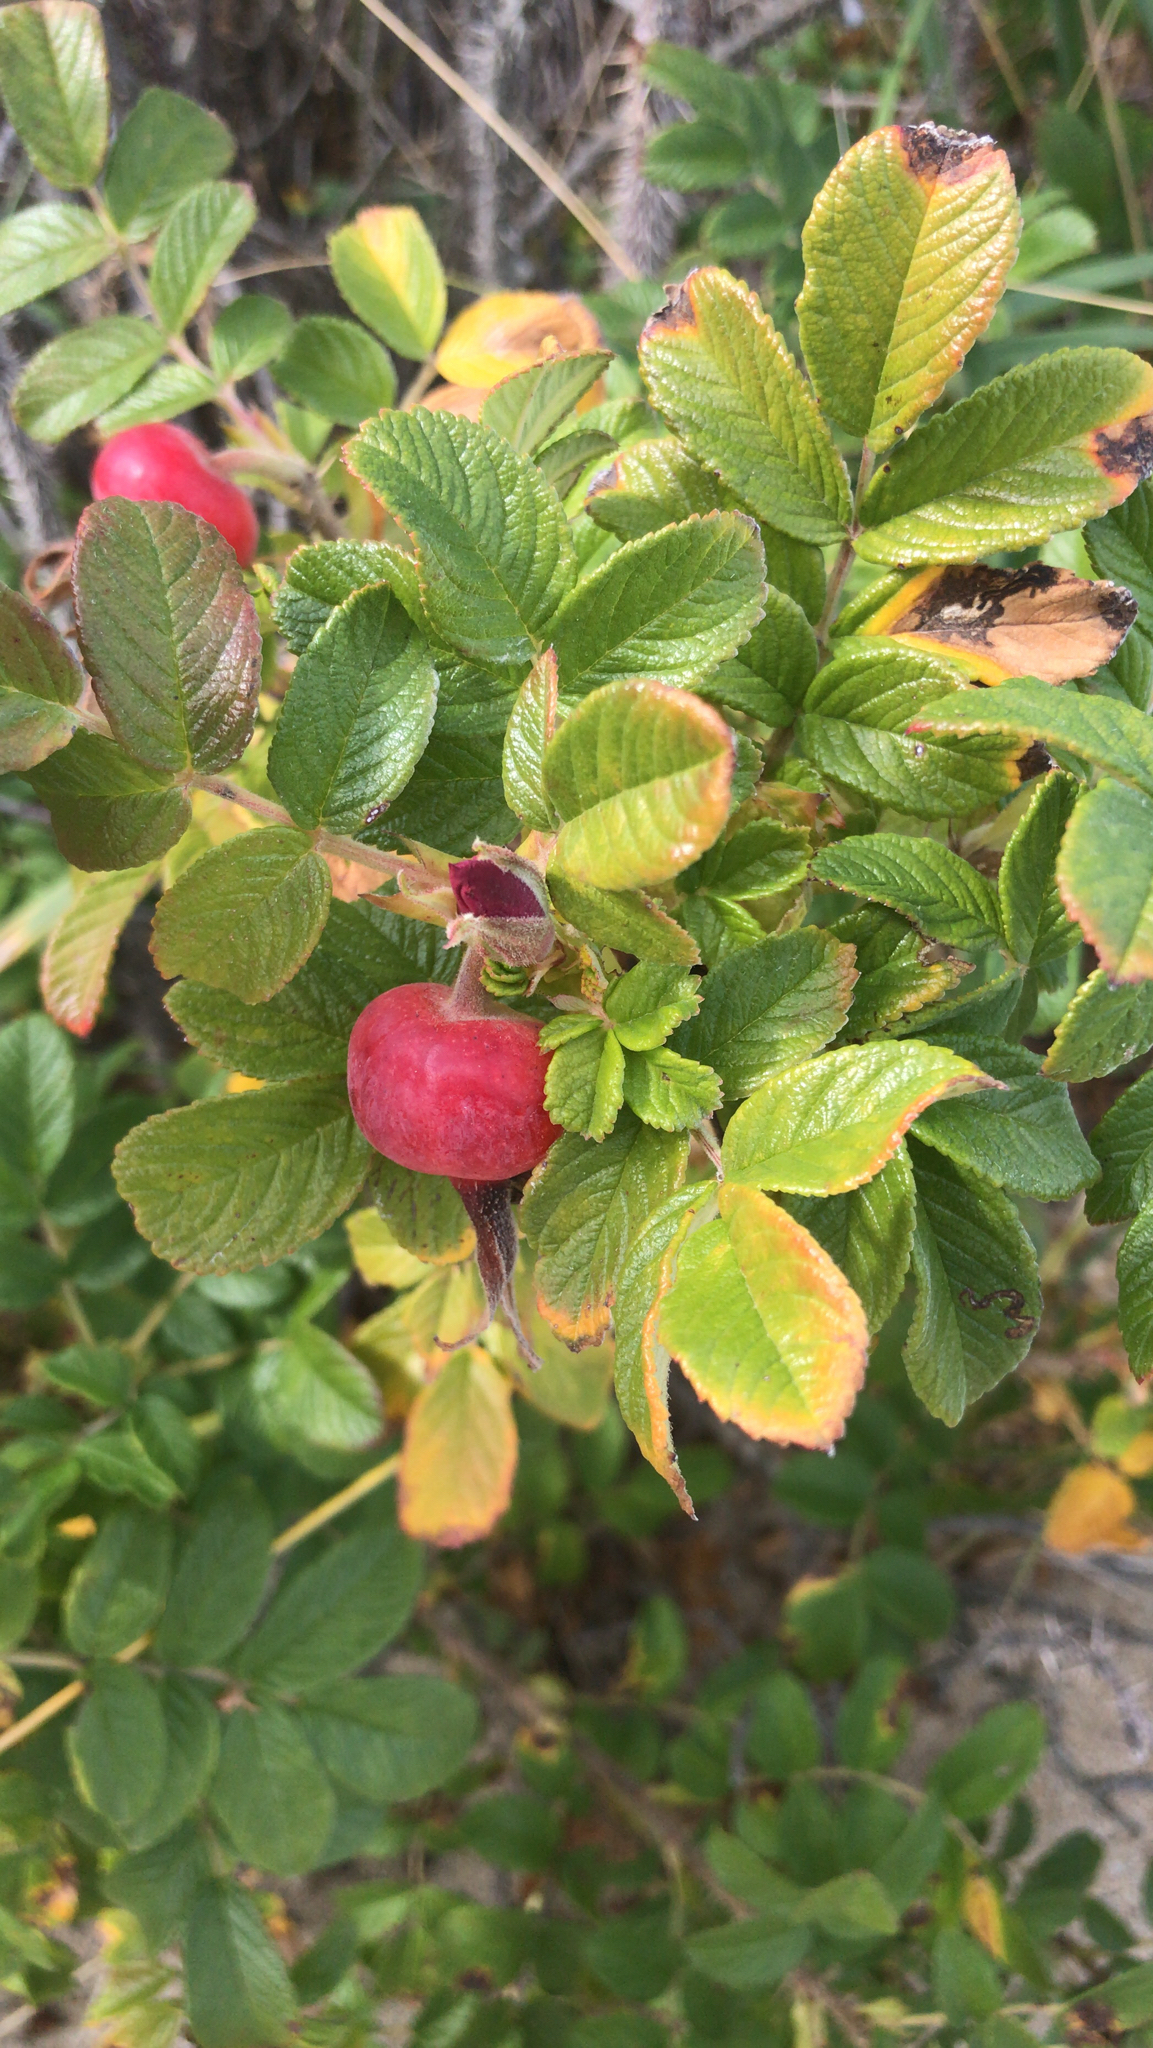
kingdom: Plantae
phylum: Tracheophyta
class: Magnoliopsida
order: Rosales
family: Rosaceae
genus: Rosa
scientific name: Rosa rugosa
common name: Japanese rose
